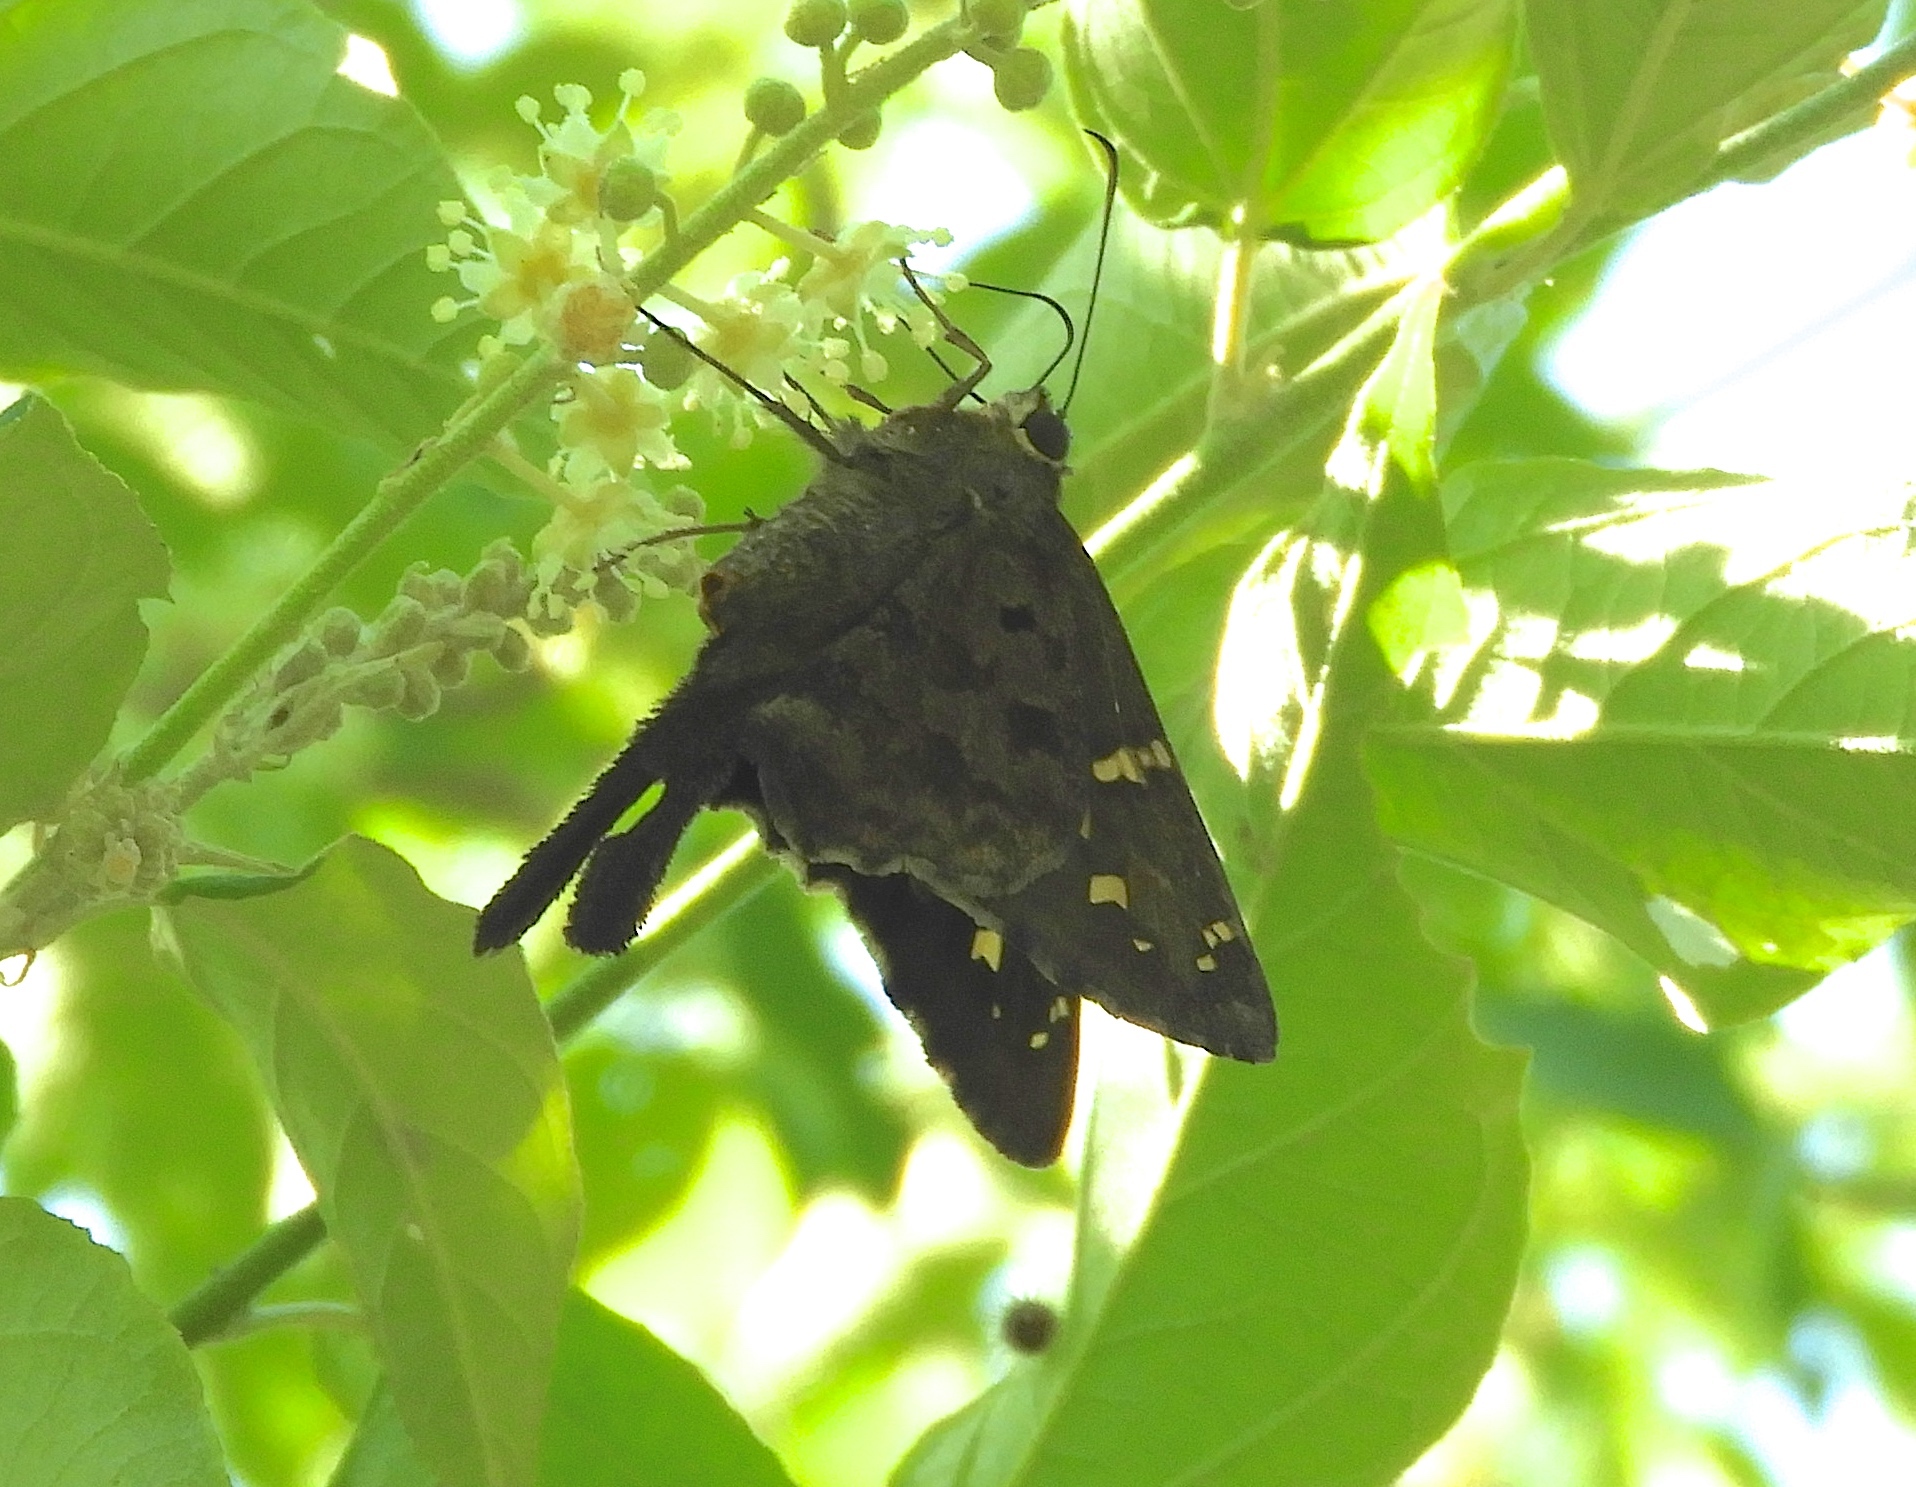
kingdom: Animalia
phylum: Arthropoda
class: Insecta
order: Lepidoptera
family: Hesperiidae
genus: Thorybes
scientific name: Thorybes
